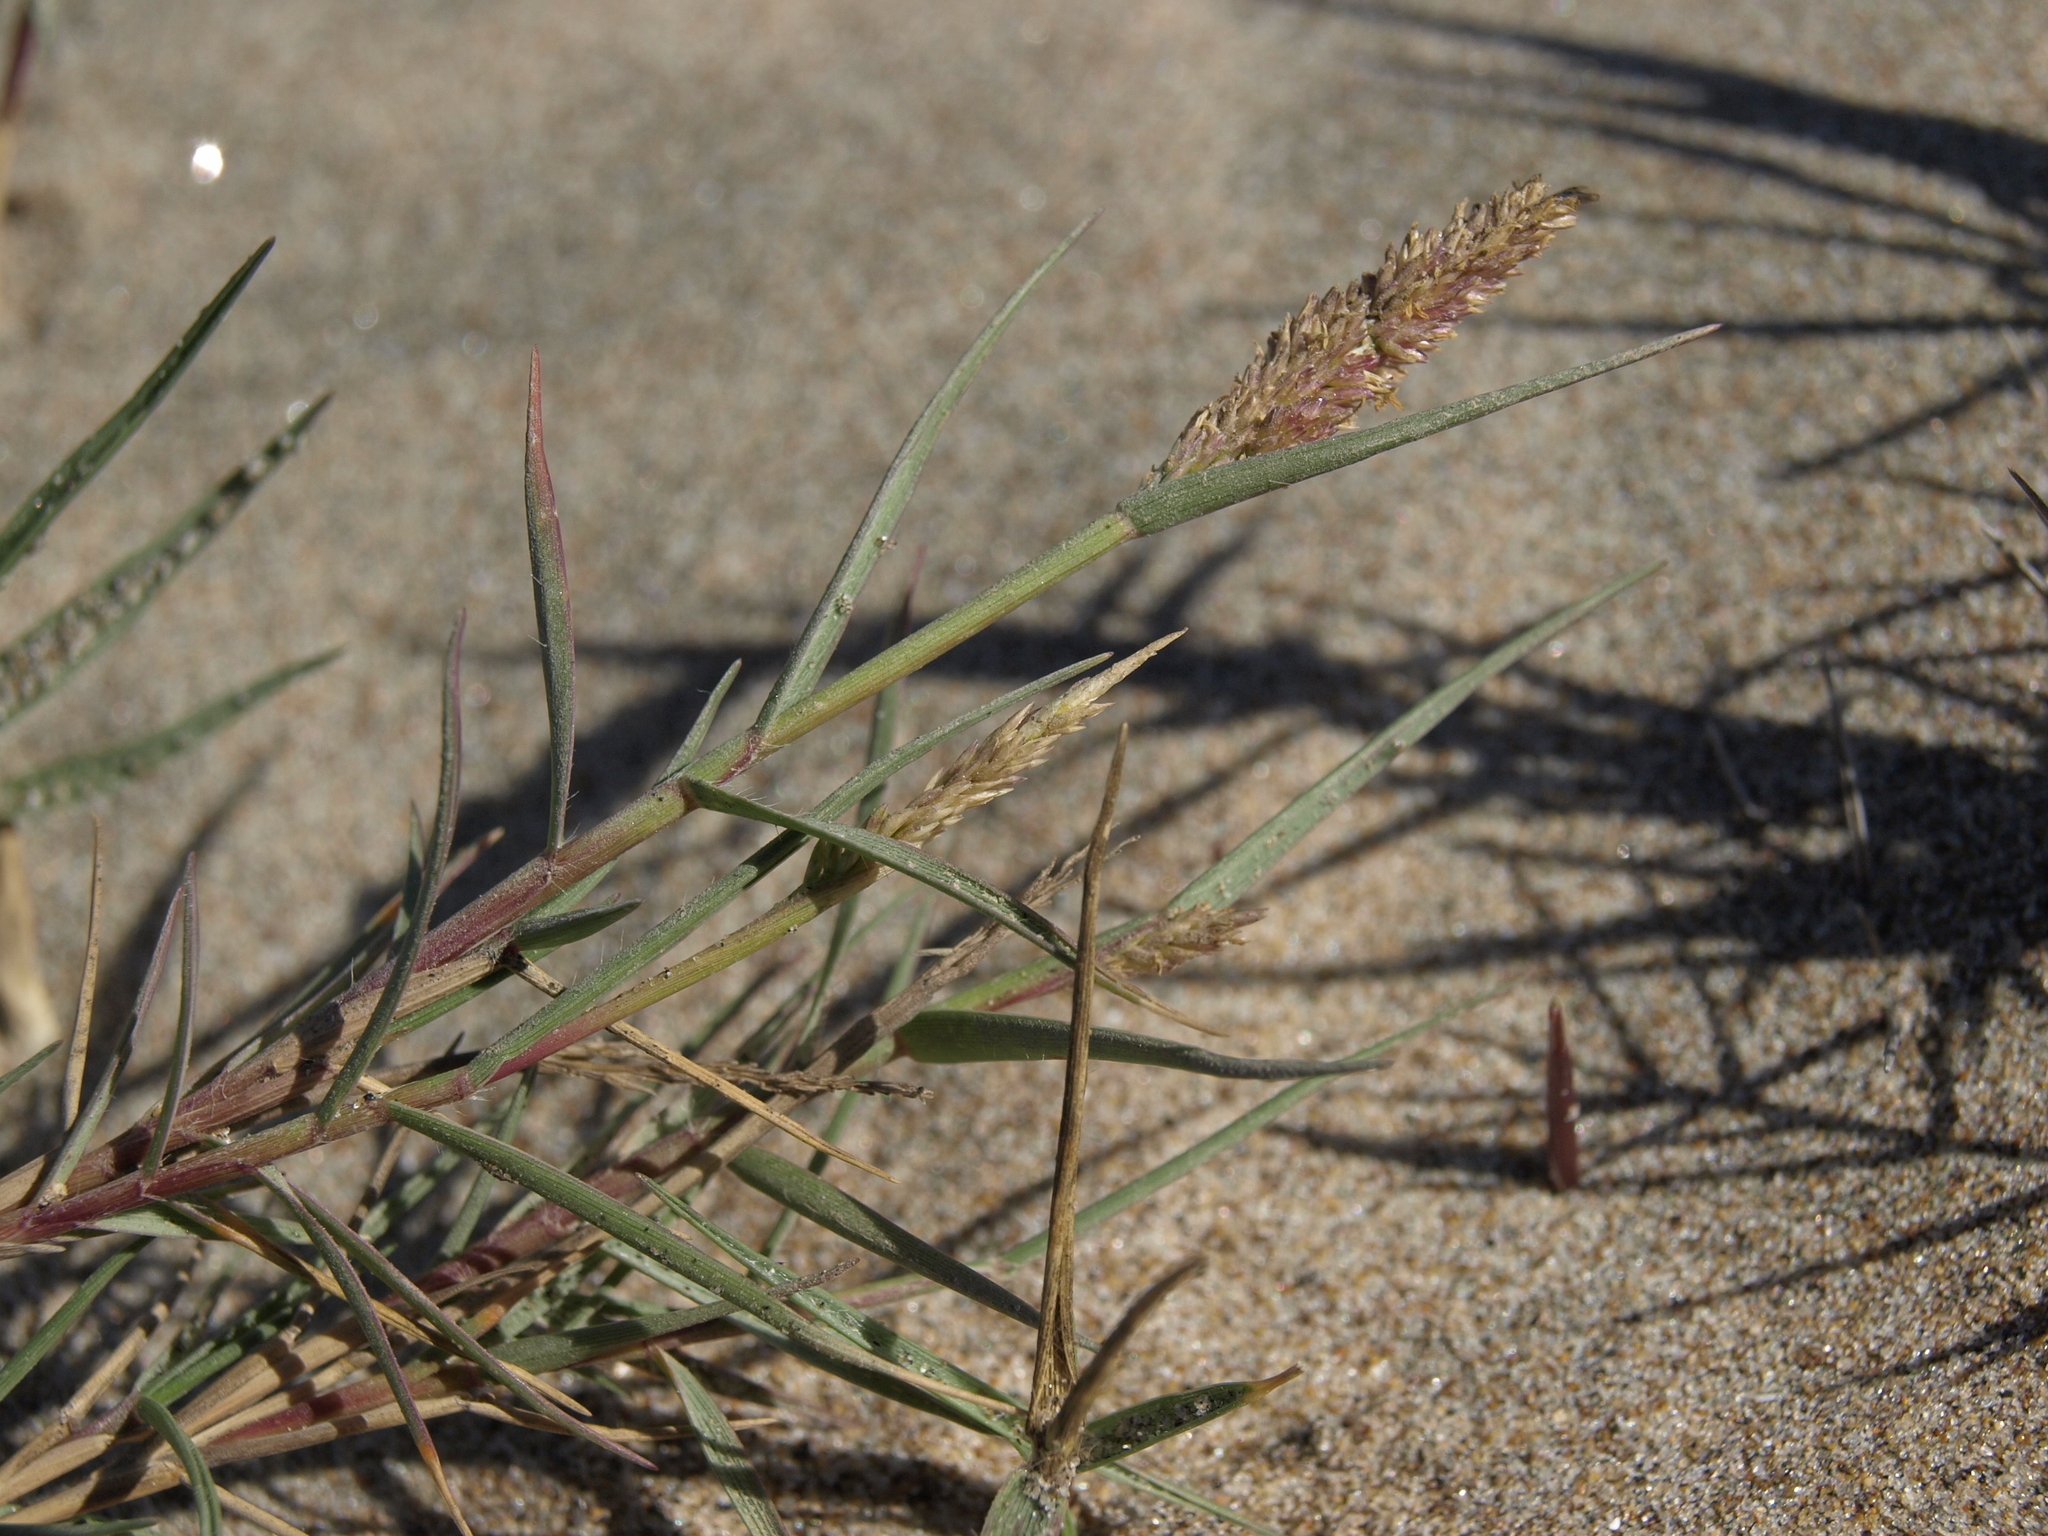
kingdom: Plantae
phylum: Tracheophyta
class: Liliopsida
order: Poales
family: Poaceae
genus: Sporobolus
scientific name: Sporobolus virginicus
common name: Beach dropseed
